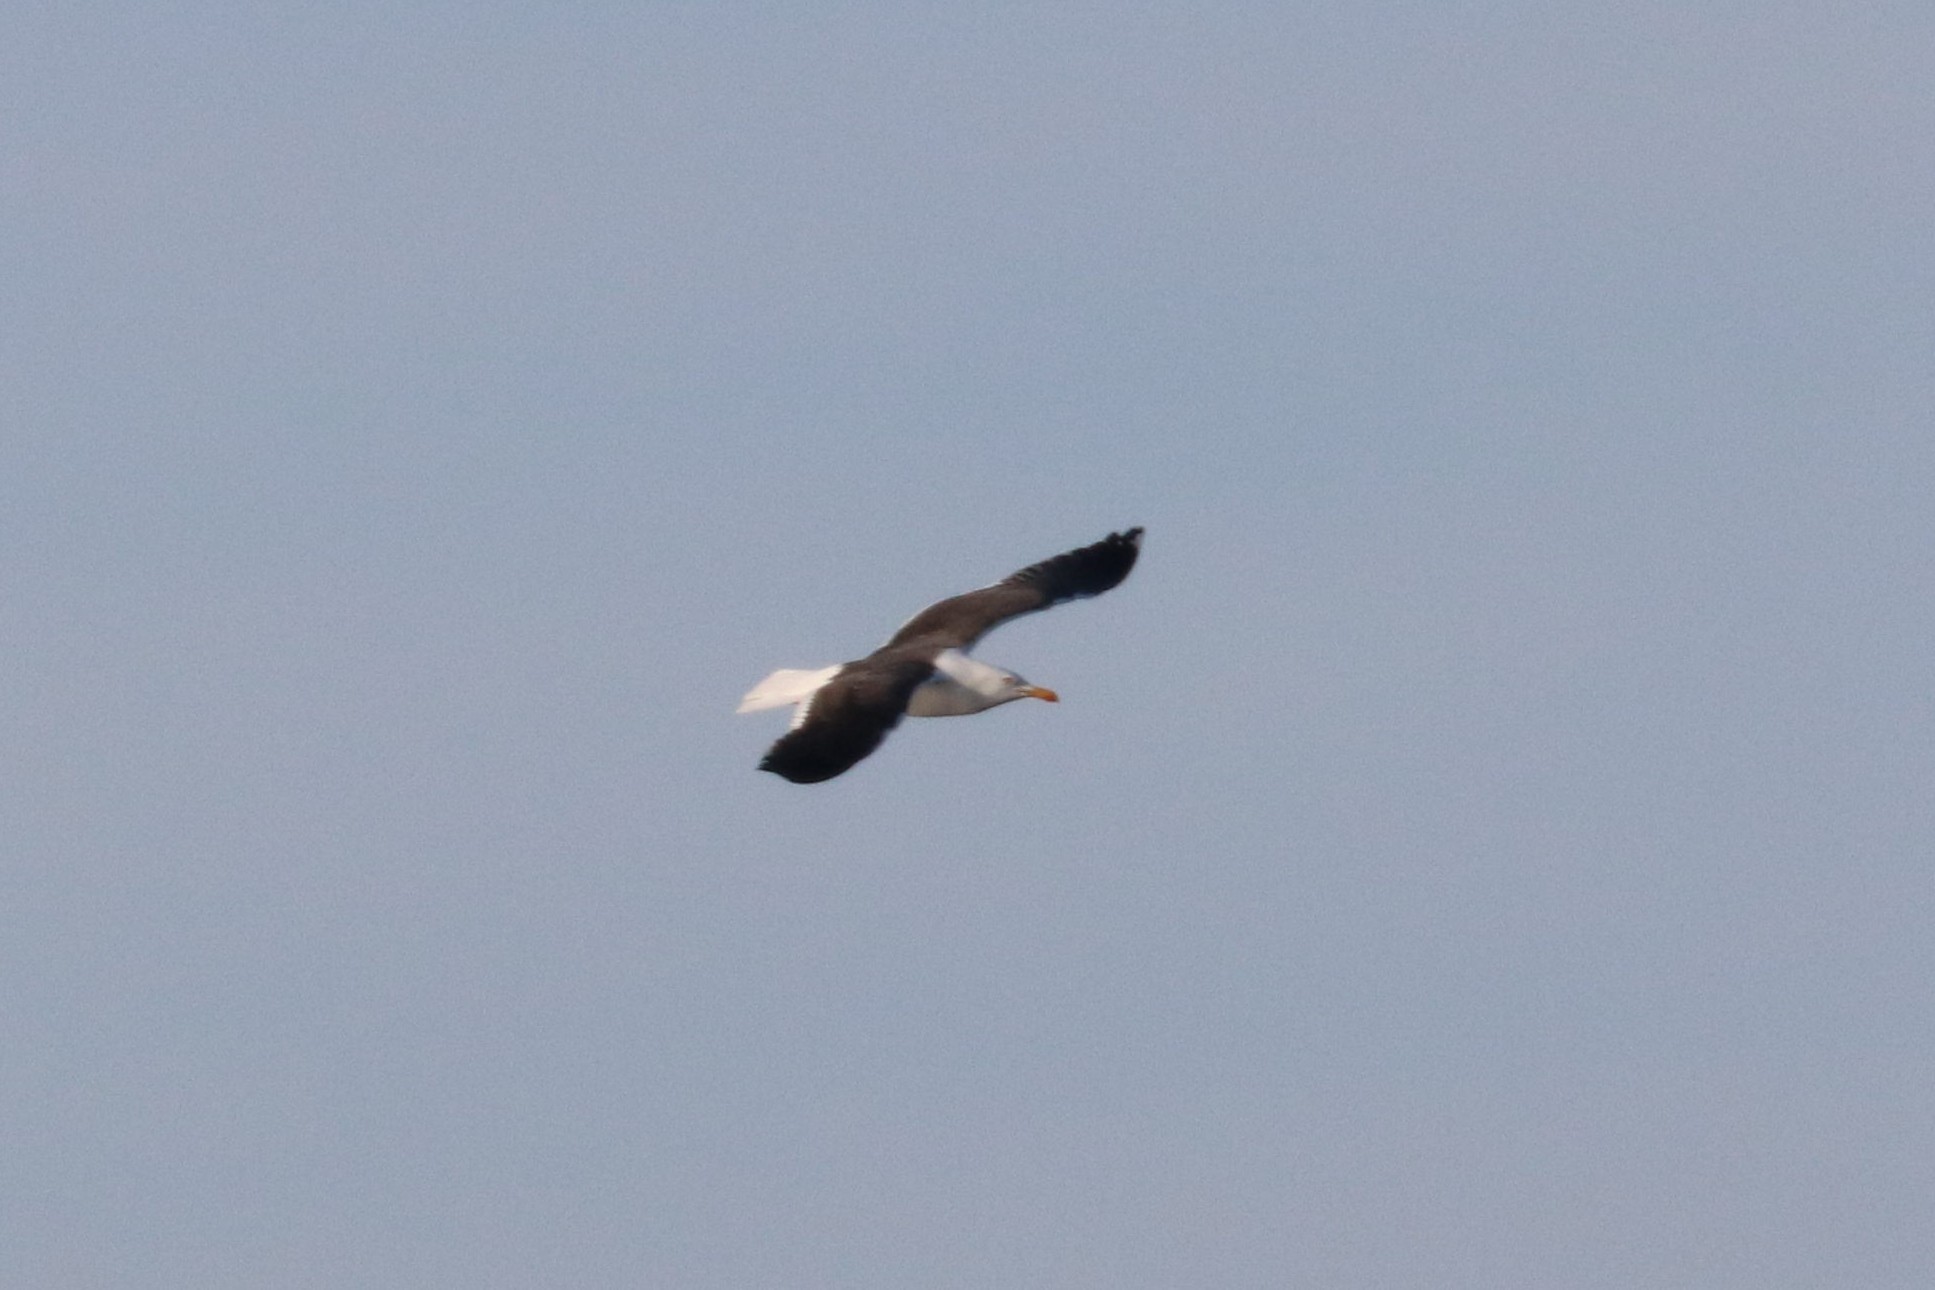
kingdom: Animalia
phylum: Chordata
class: Aves
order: Charadriiformes
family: Laridae
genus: Larus
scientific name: Larus fuscus
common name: Lesser black-backed gull
